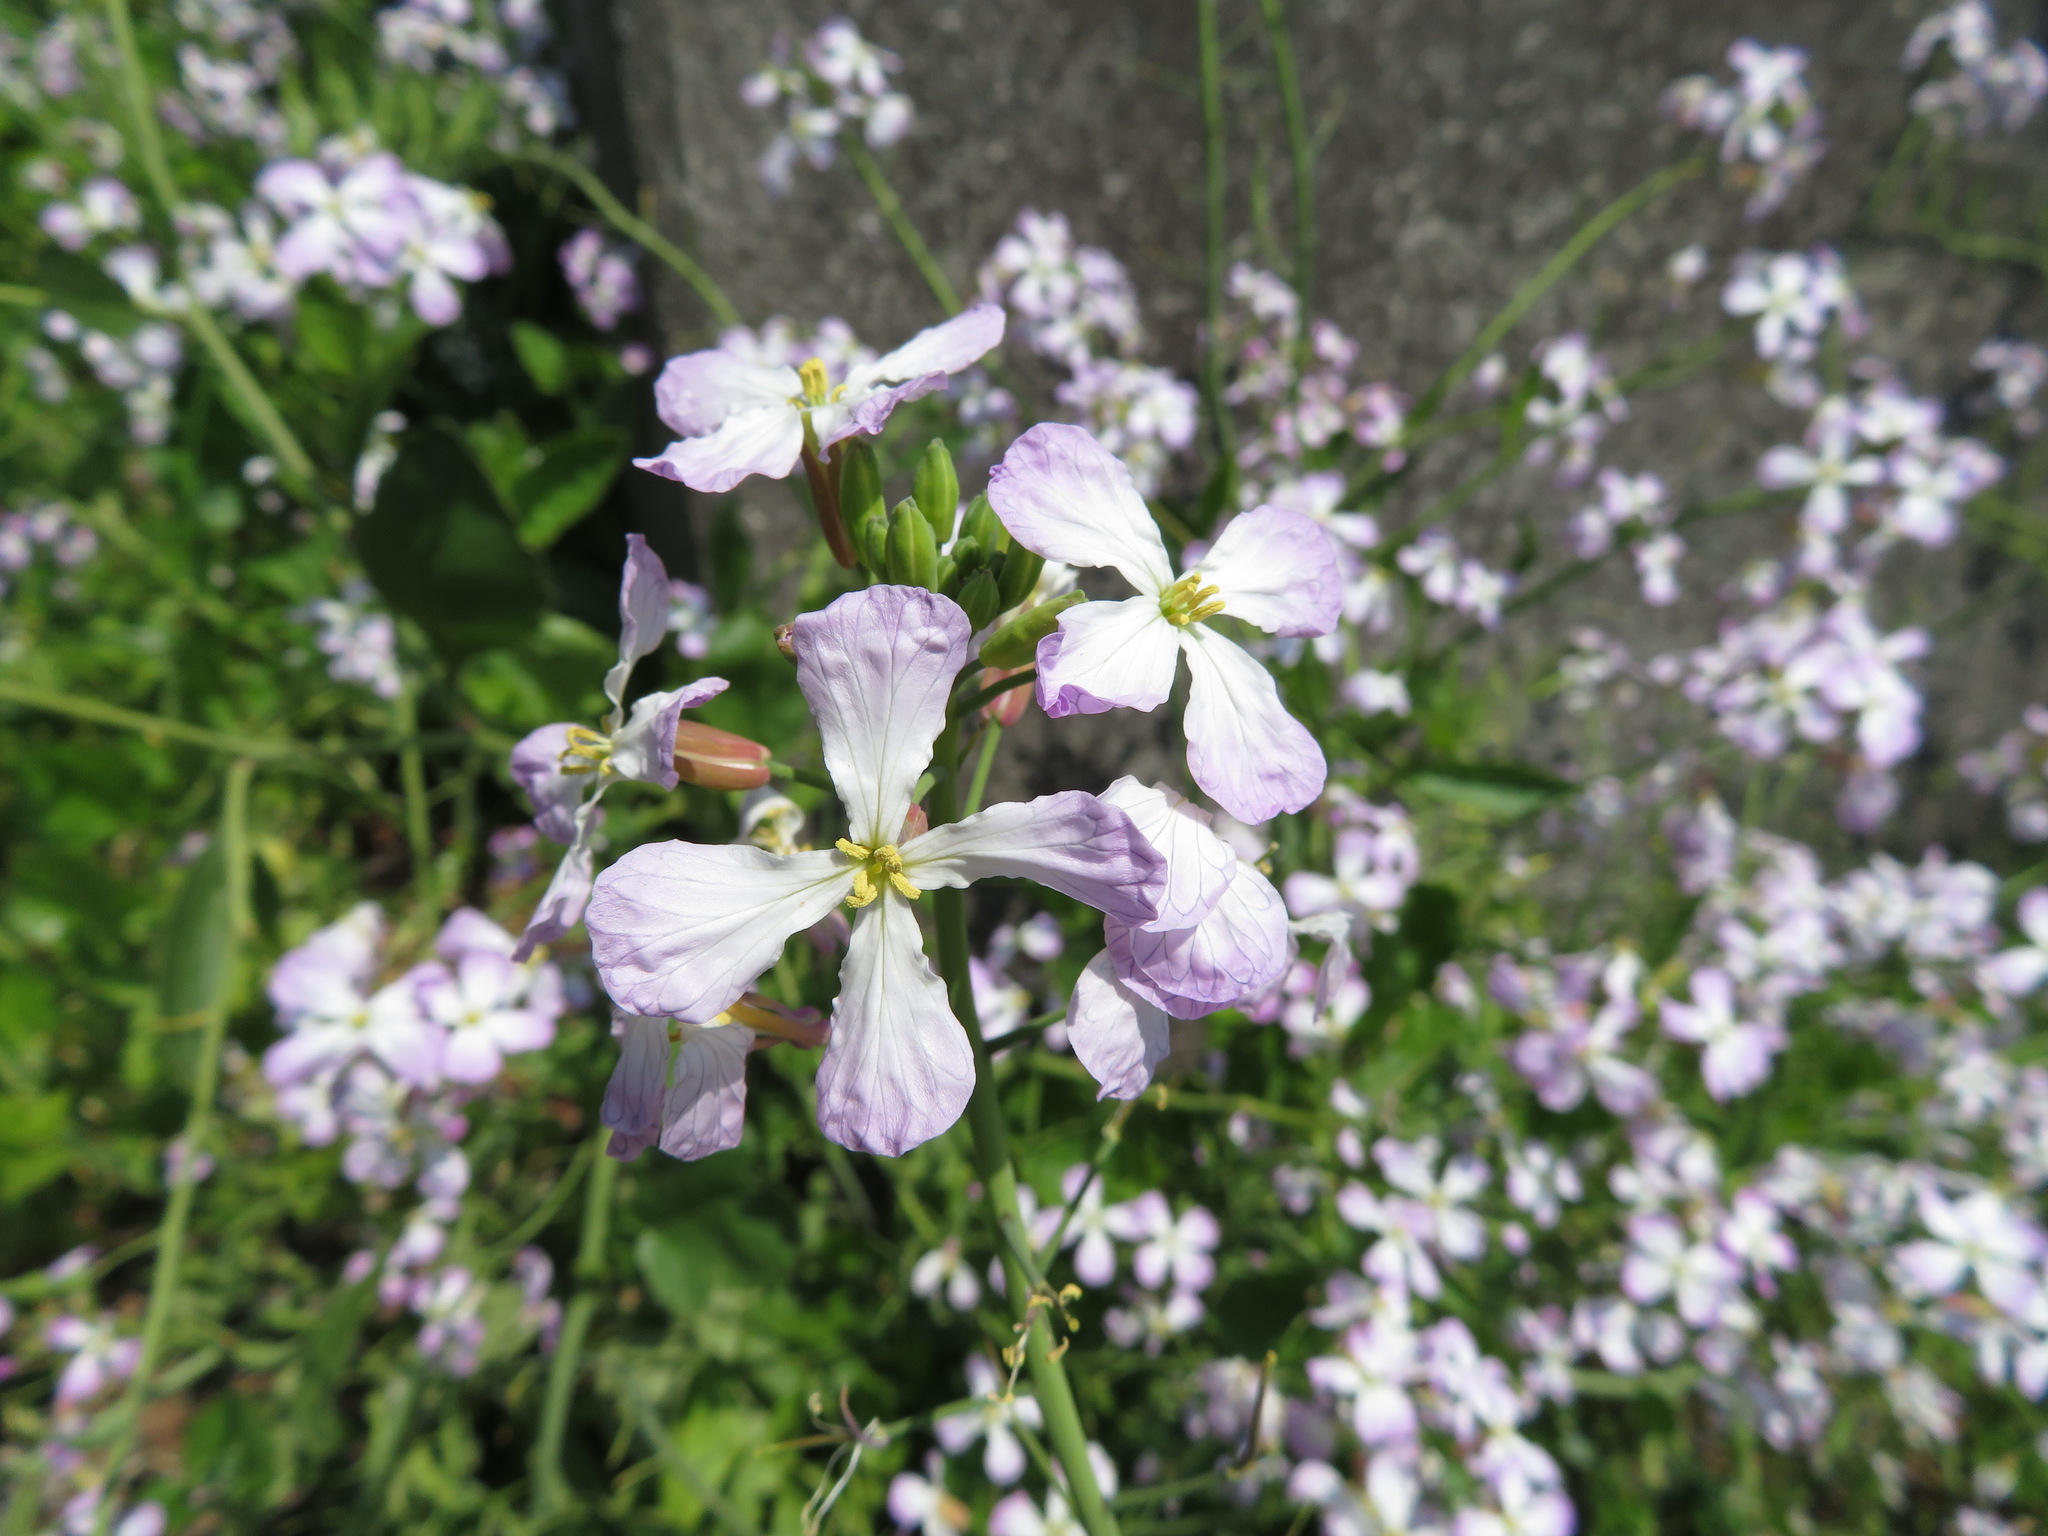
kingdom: Plantae
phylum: Tracheophyta
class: Magnoliopsida
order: Brassicales
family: Brassicaceae
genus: Raphanus
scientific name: Raphanus sativus
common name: Cultivated radish
